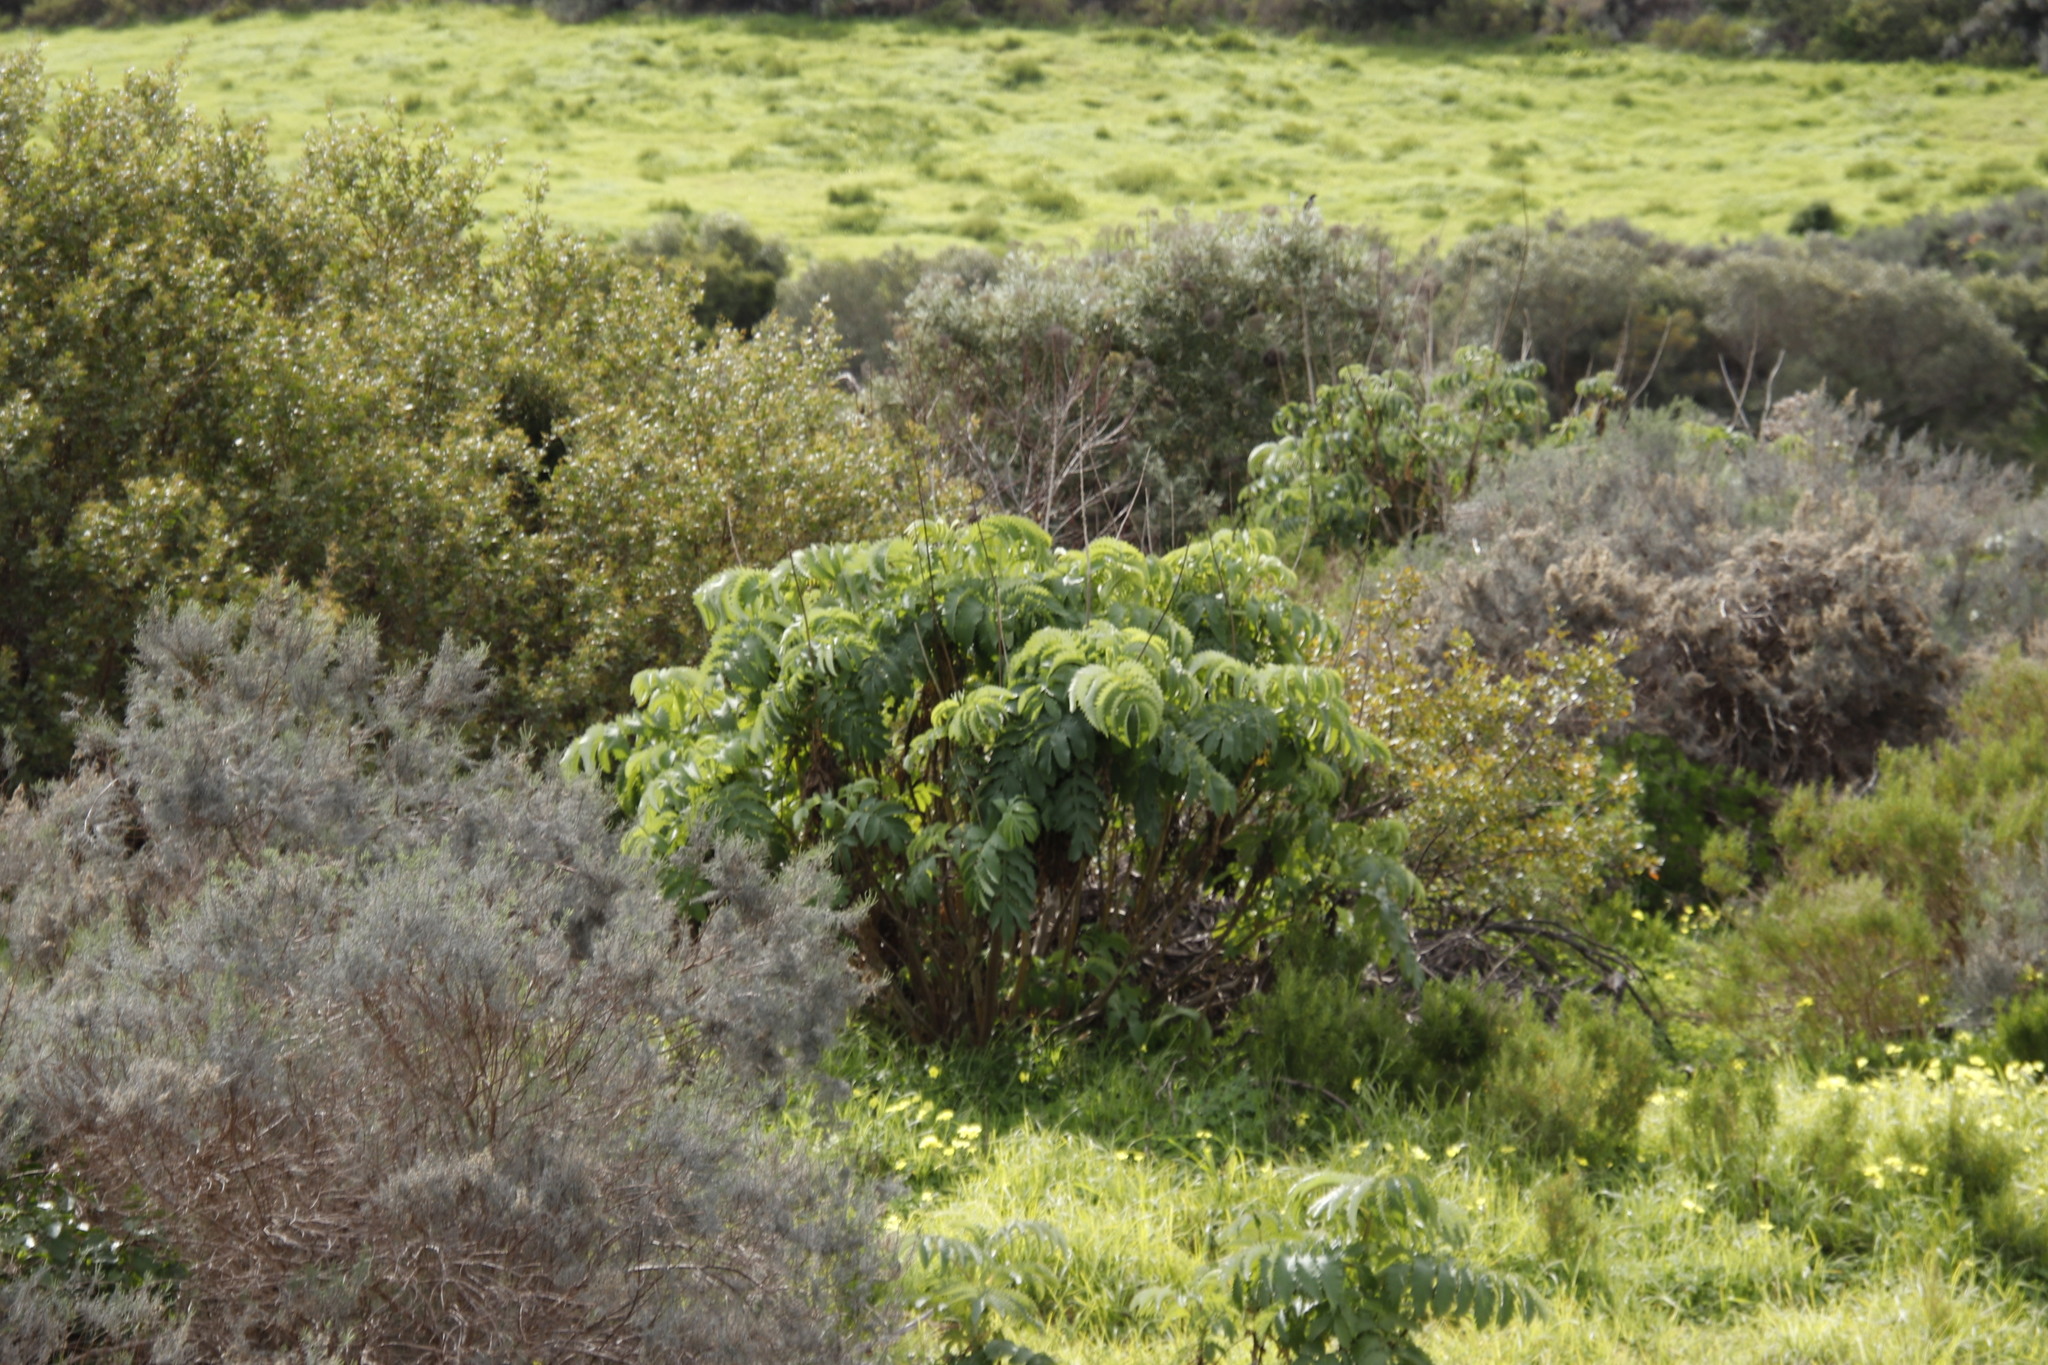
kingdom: Plantae
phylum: Tracheophyta
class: Magnoliopsida
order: Geraniales
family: Melianthaceae
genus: Melianthus
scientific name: Melianthus major
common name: Honey-flower
